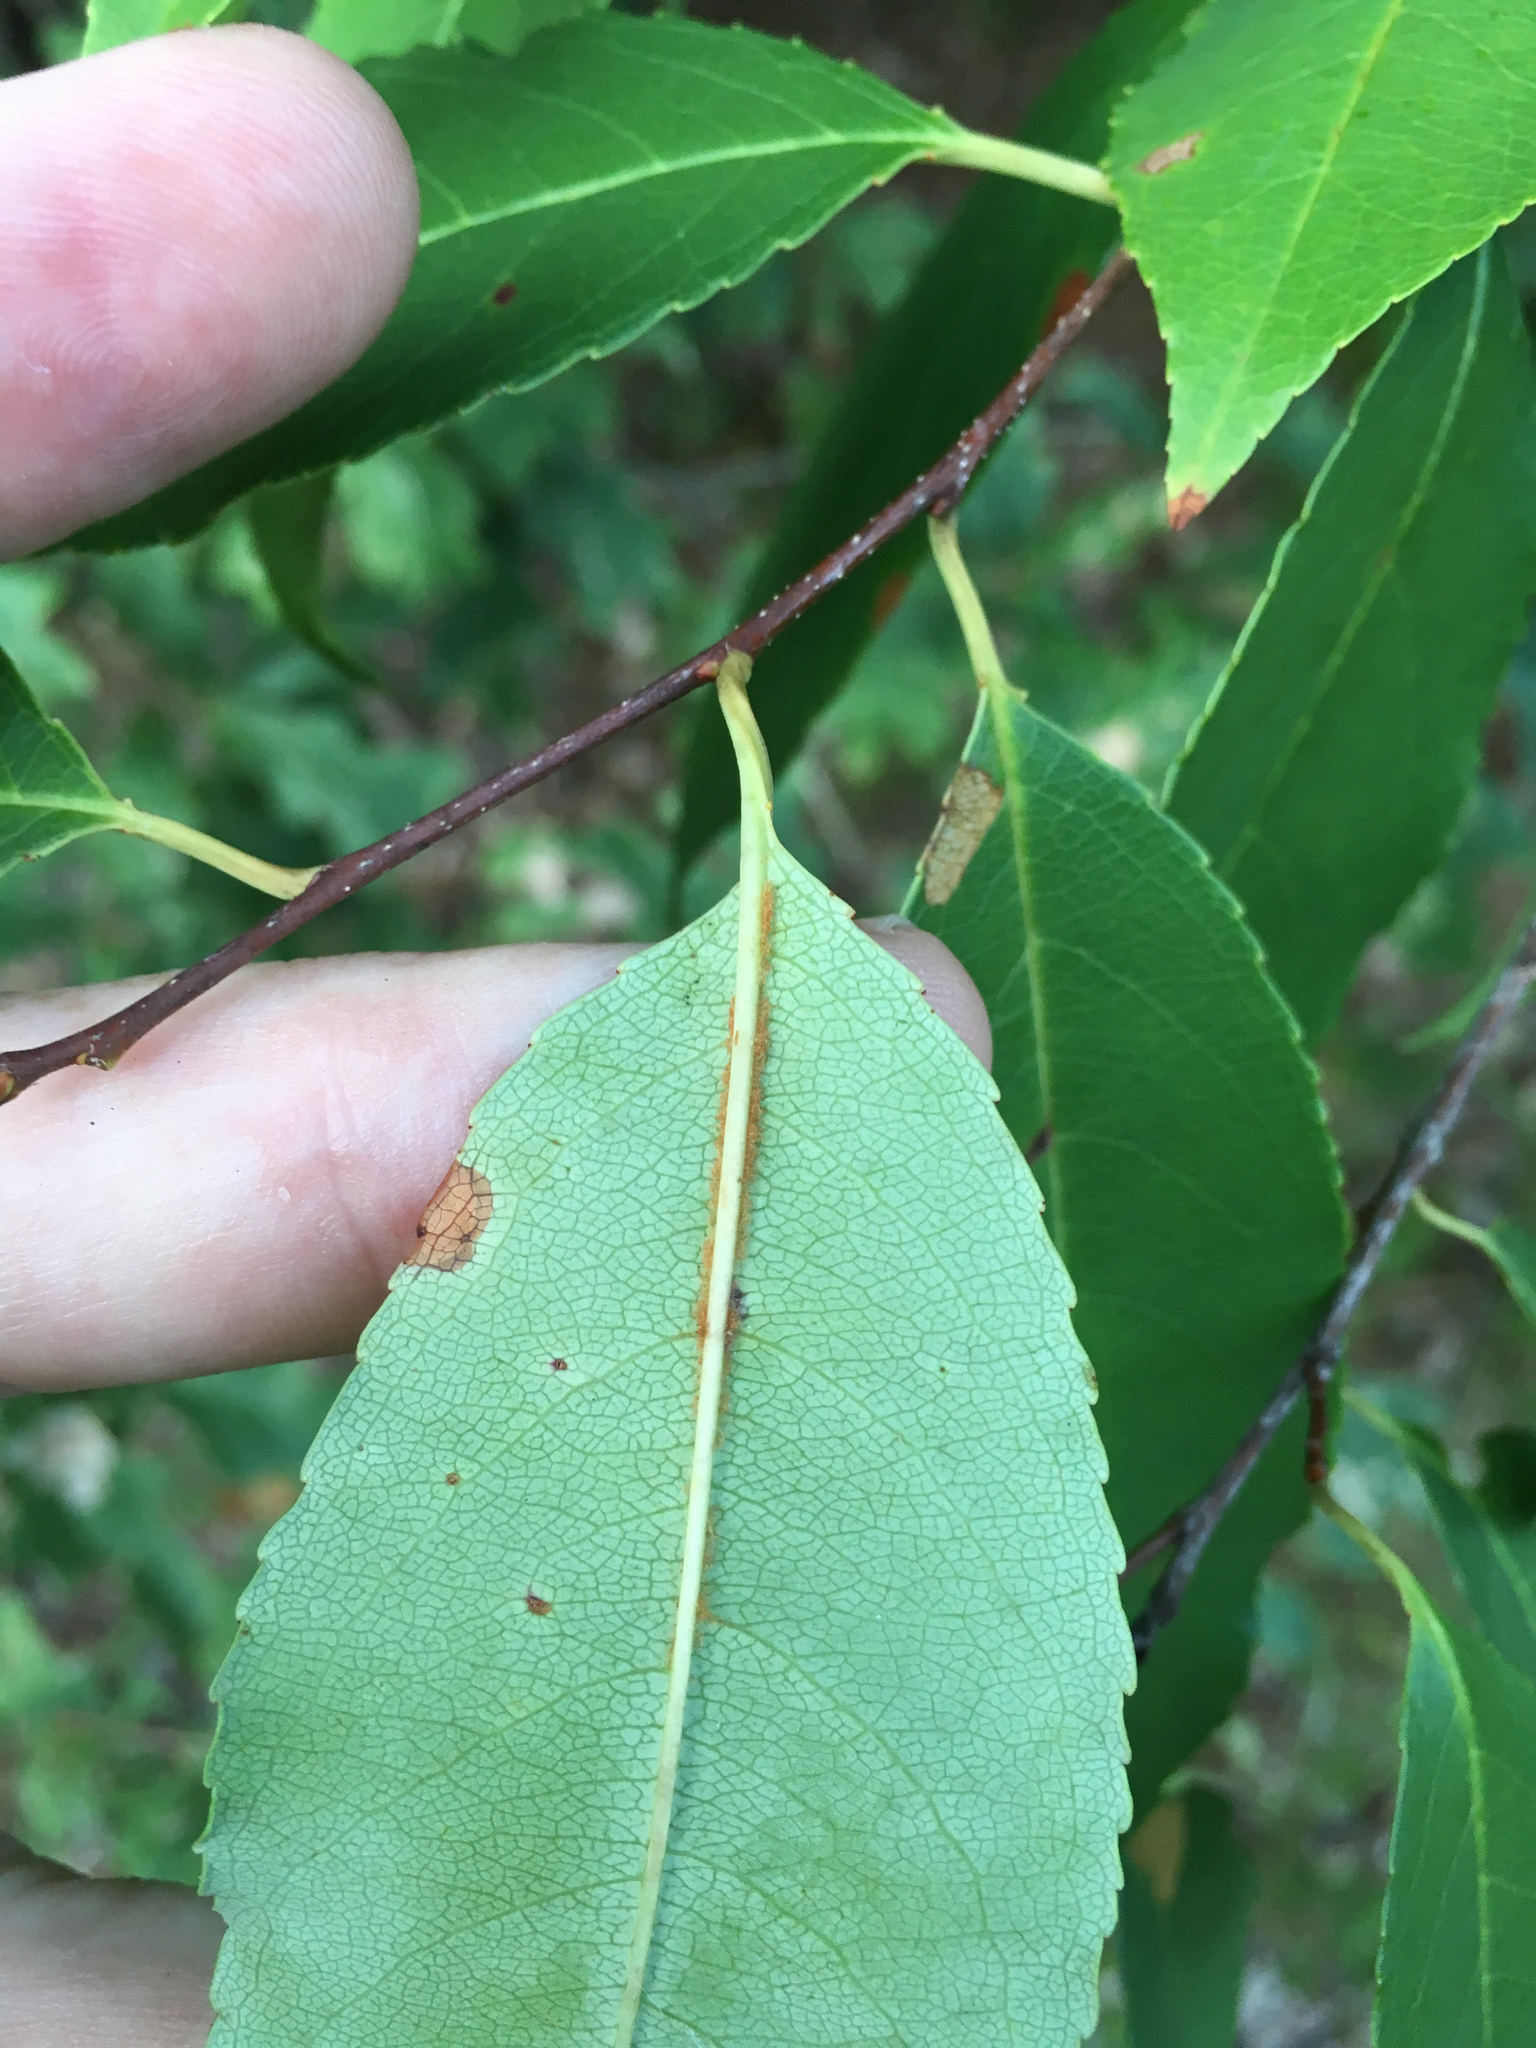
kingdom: Plantae
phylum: Tracheophyta
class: Magnoliopsida
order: Rosales
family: Rosaceae
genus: Prunus
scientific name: Prunus serotina
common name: Black cherry
